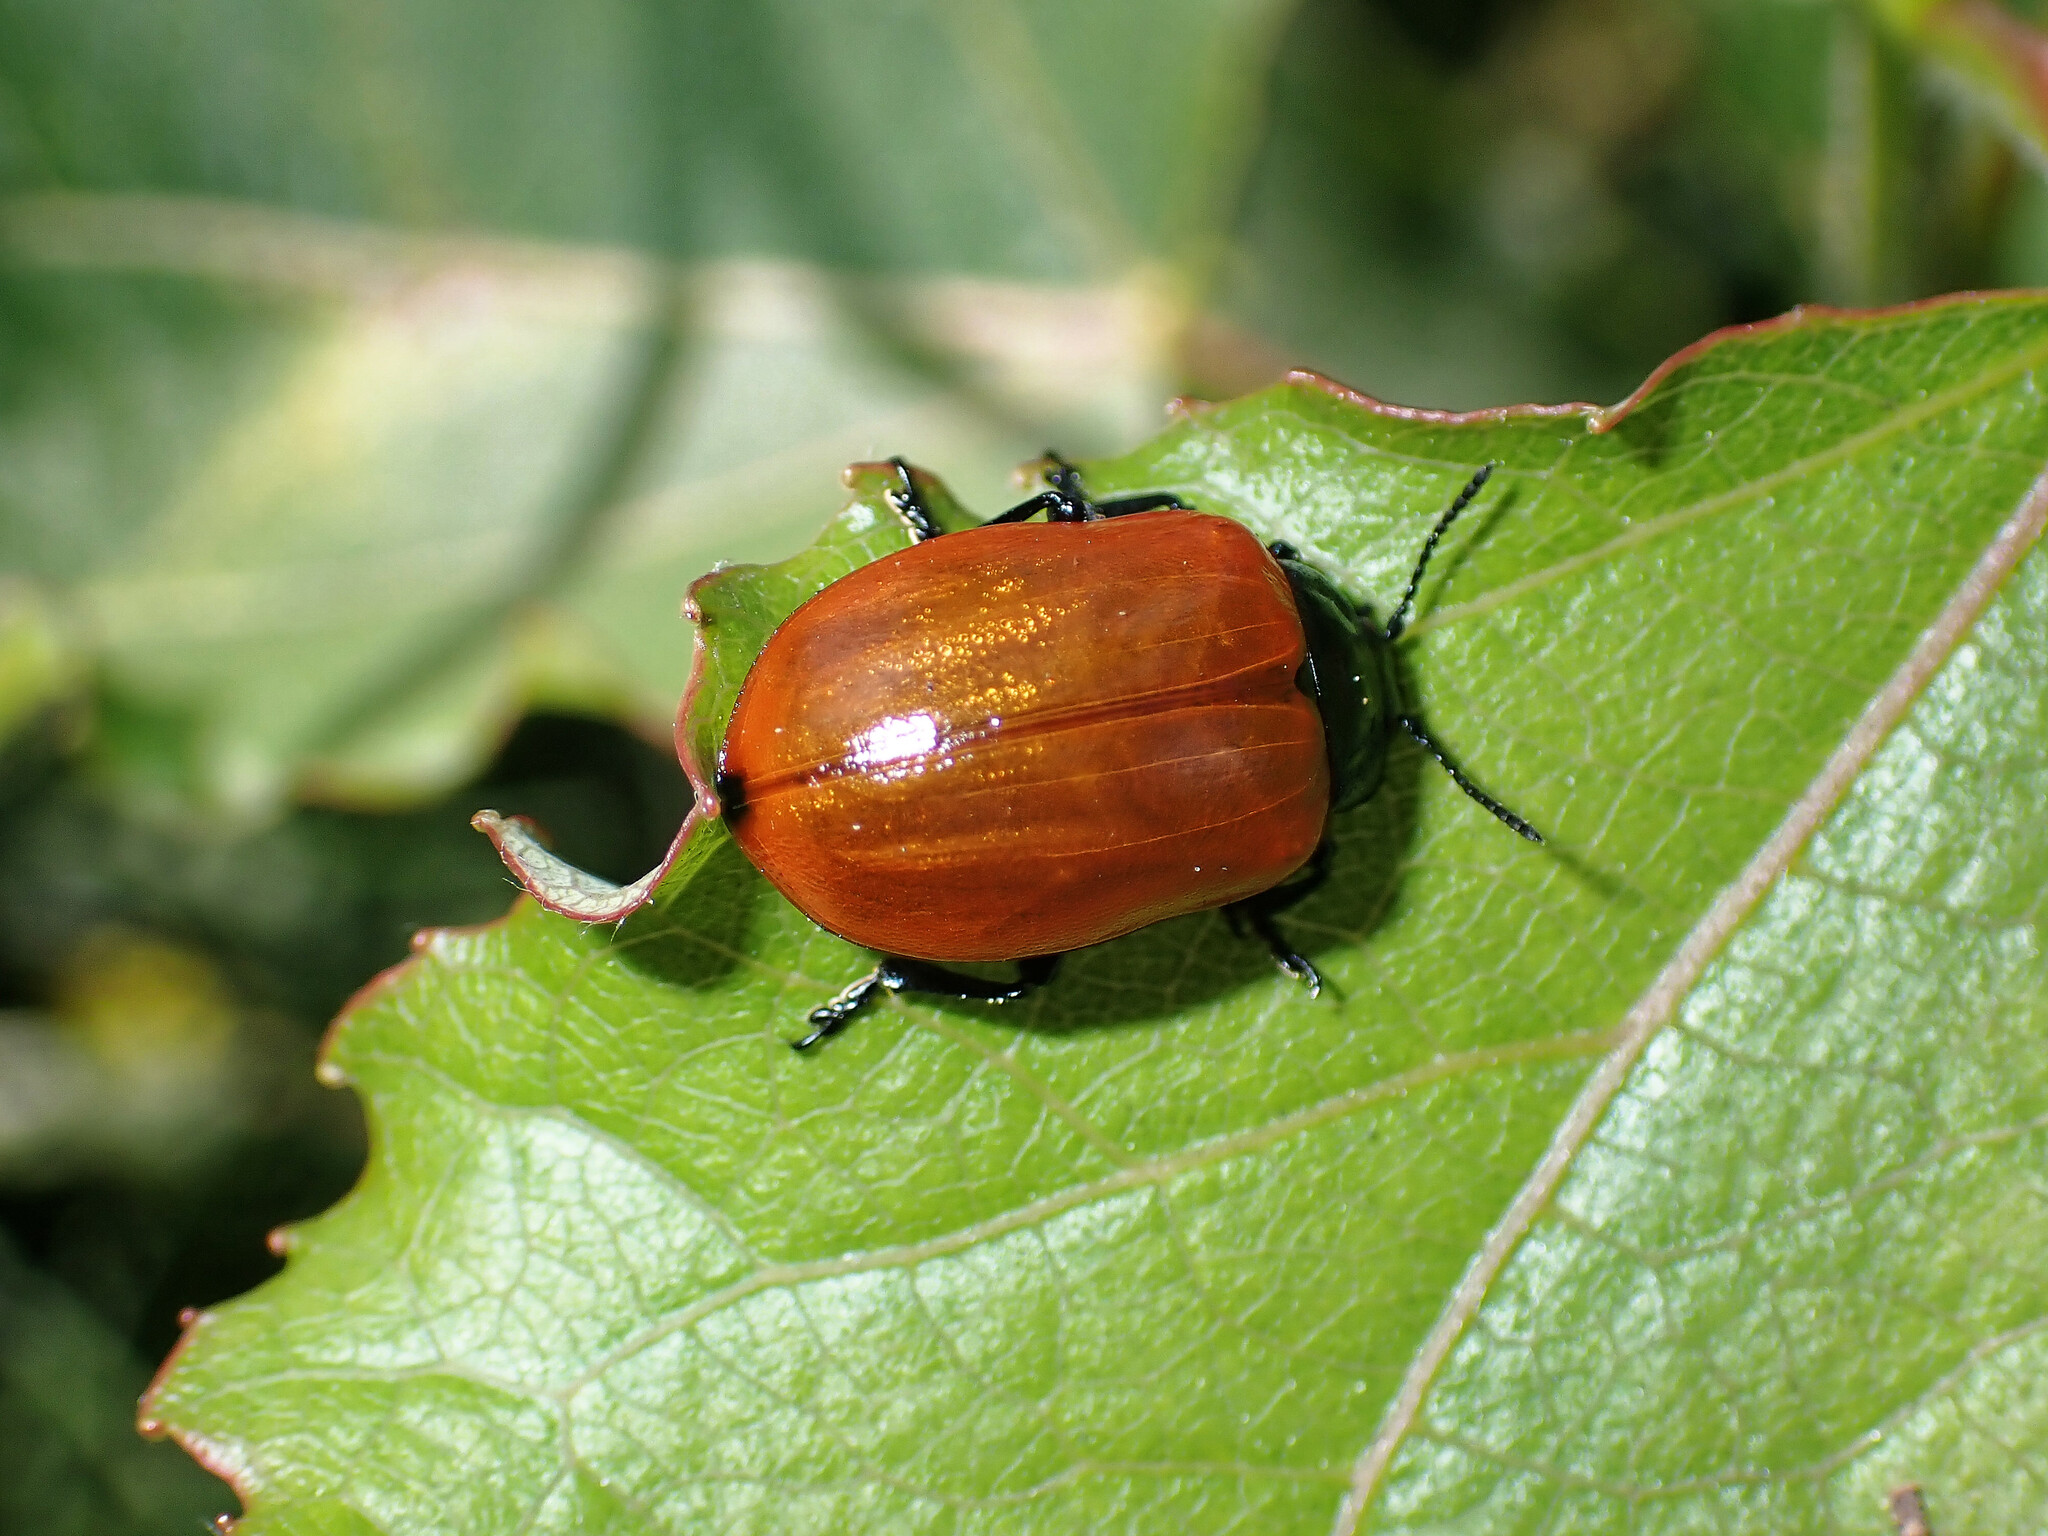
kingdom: Animalia
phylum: Arthropoda
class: Insecta
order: Coleoptera
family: Chrysomelidae
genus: Chrysomela
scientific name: Chrysomela populi
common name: Red poplar leaf beetle
